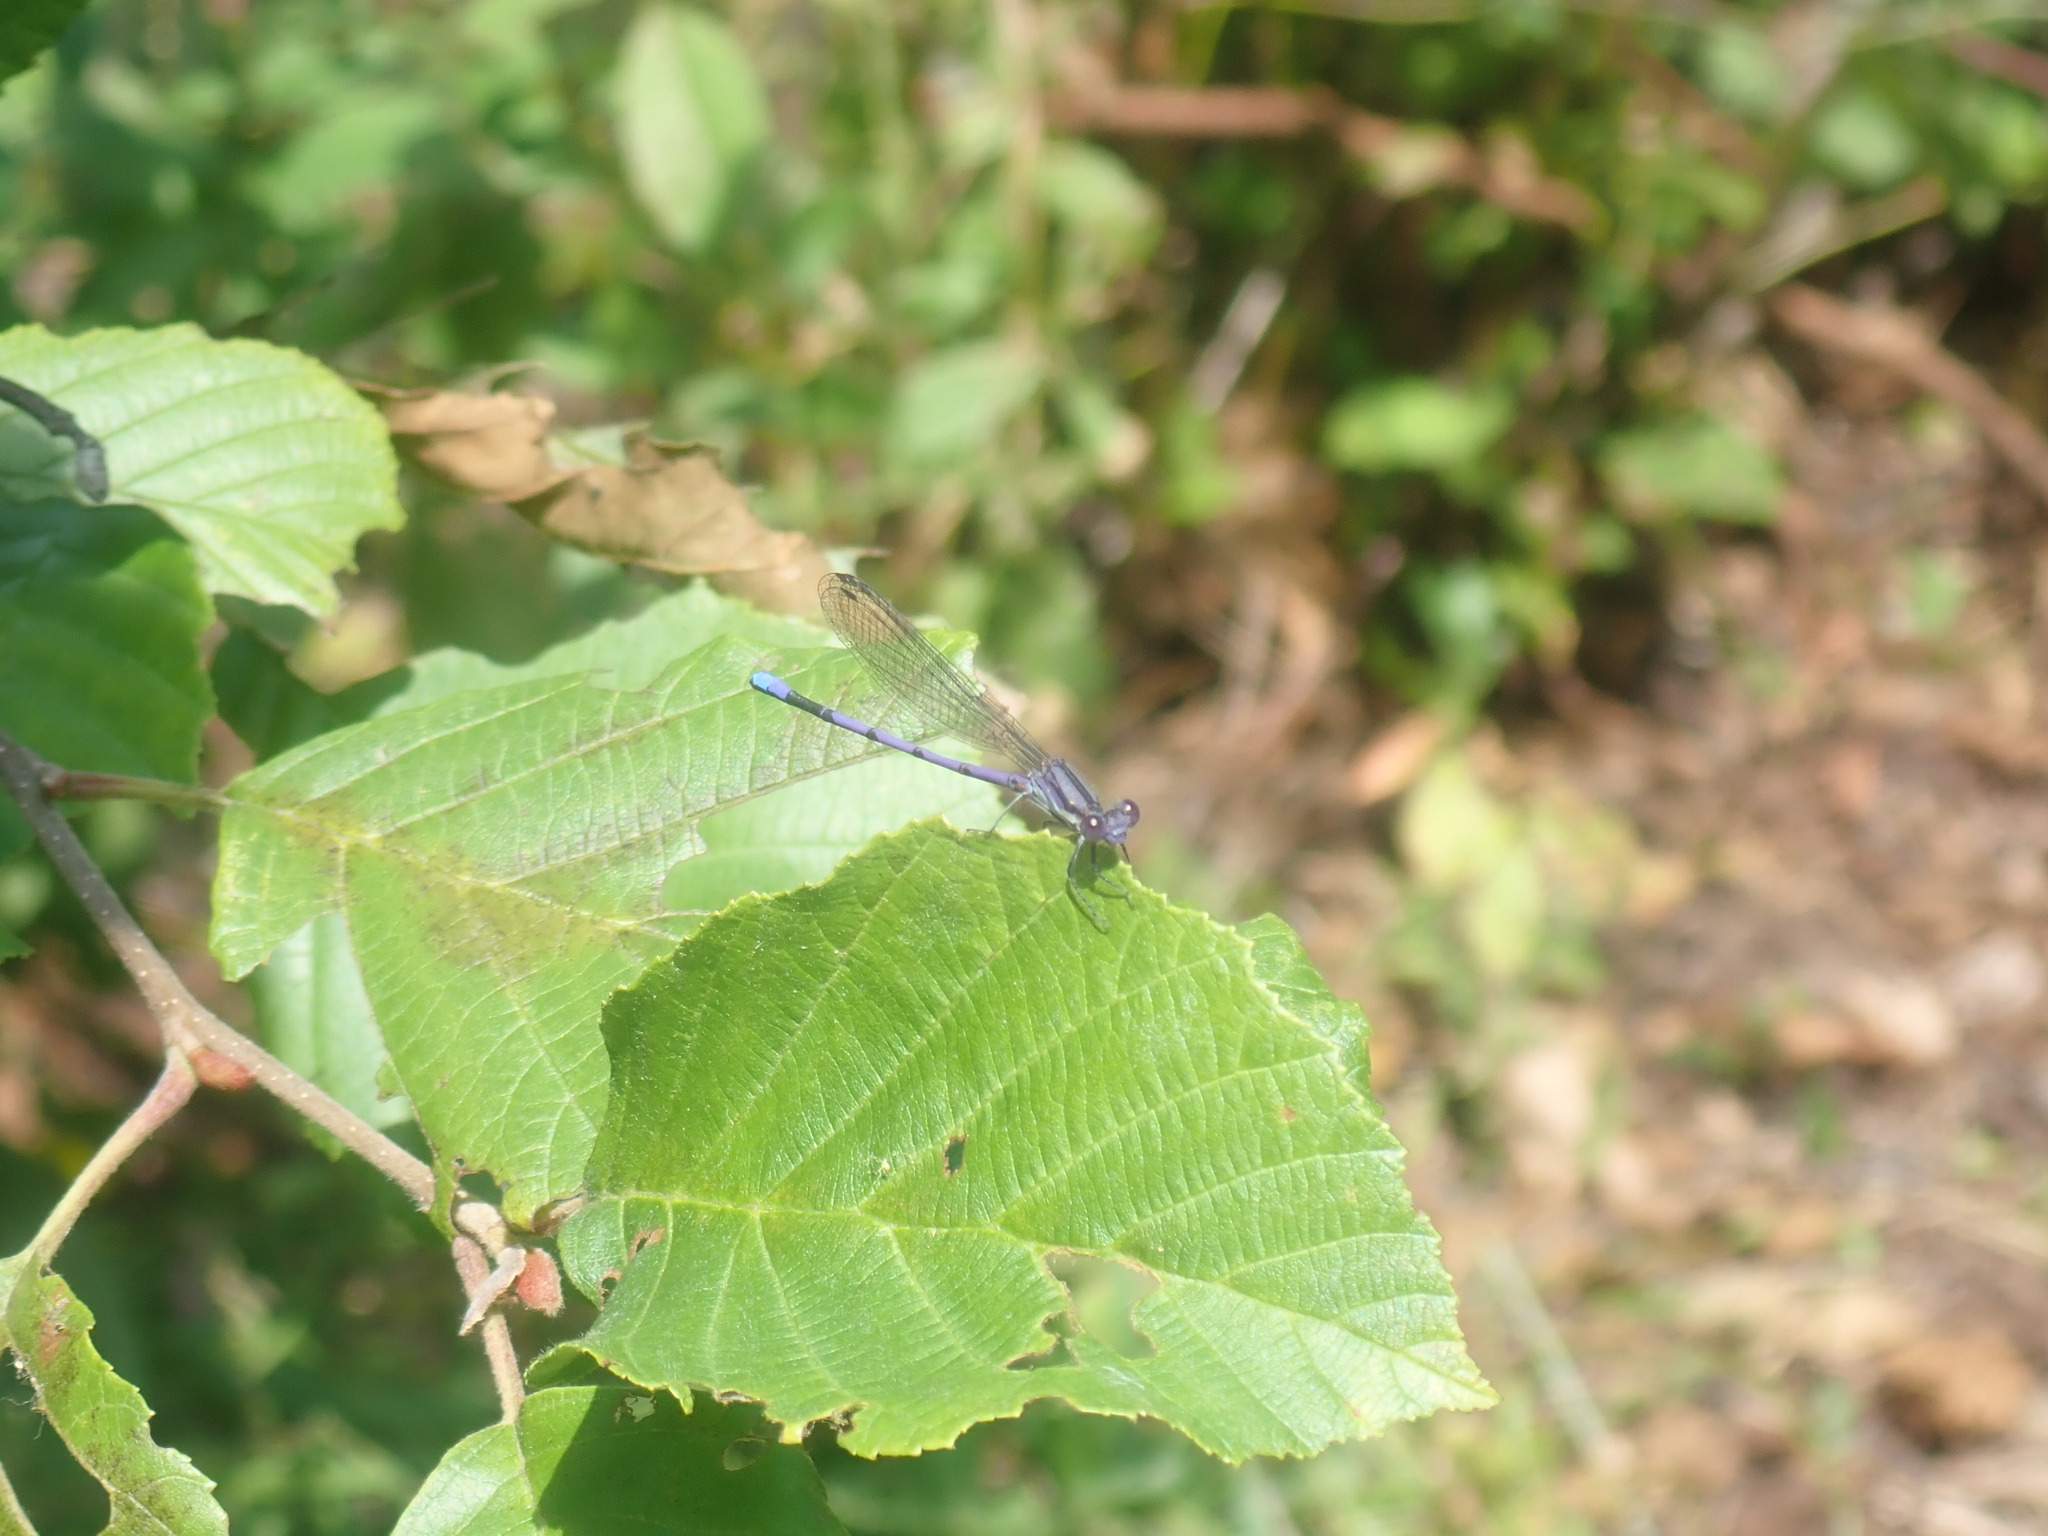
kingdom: Animalia
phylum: Arthropoda
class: Insecta
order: Odonata
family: Coenagrionidae
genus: Argia
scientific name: Argia fumipennis
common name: Variable dancer
